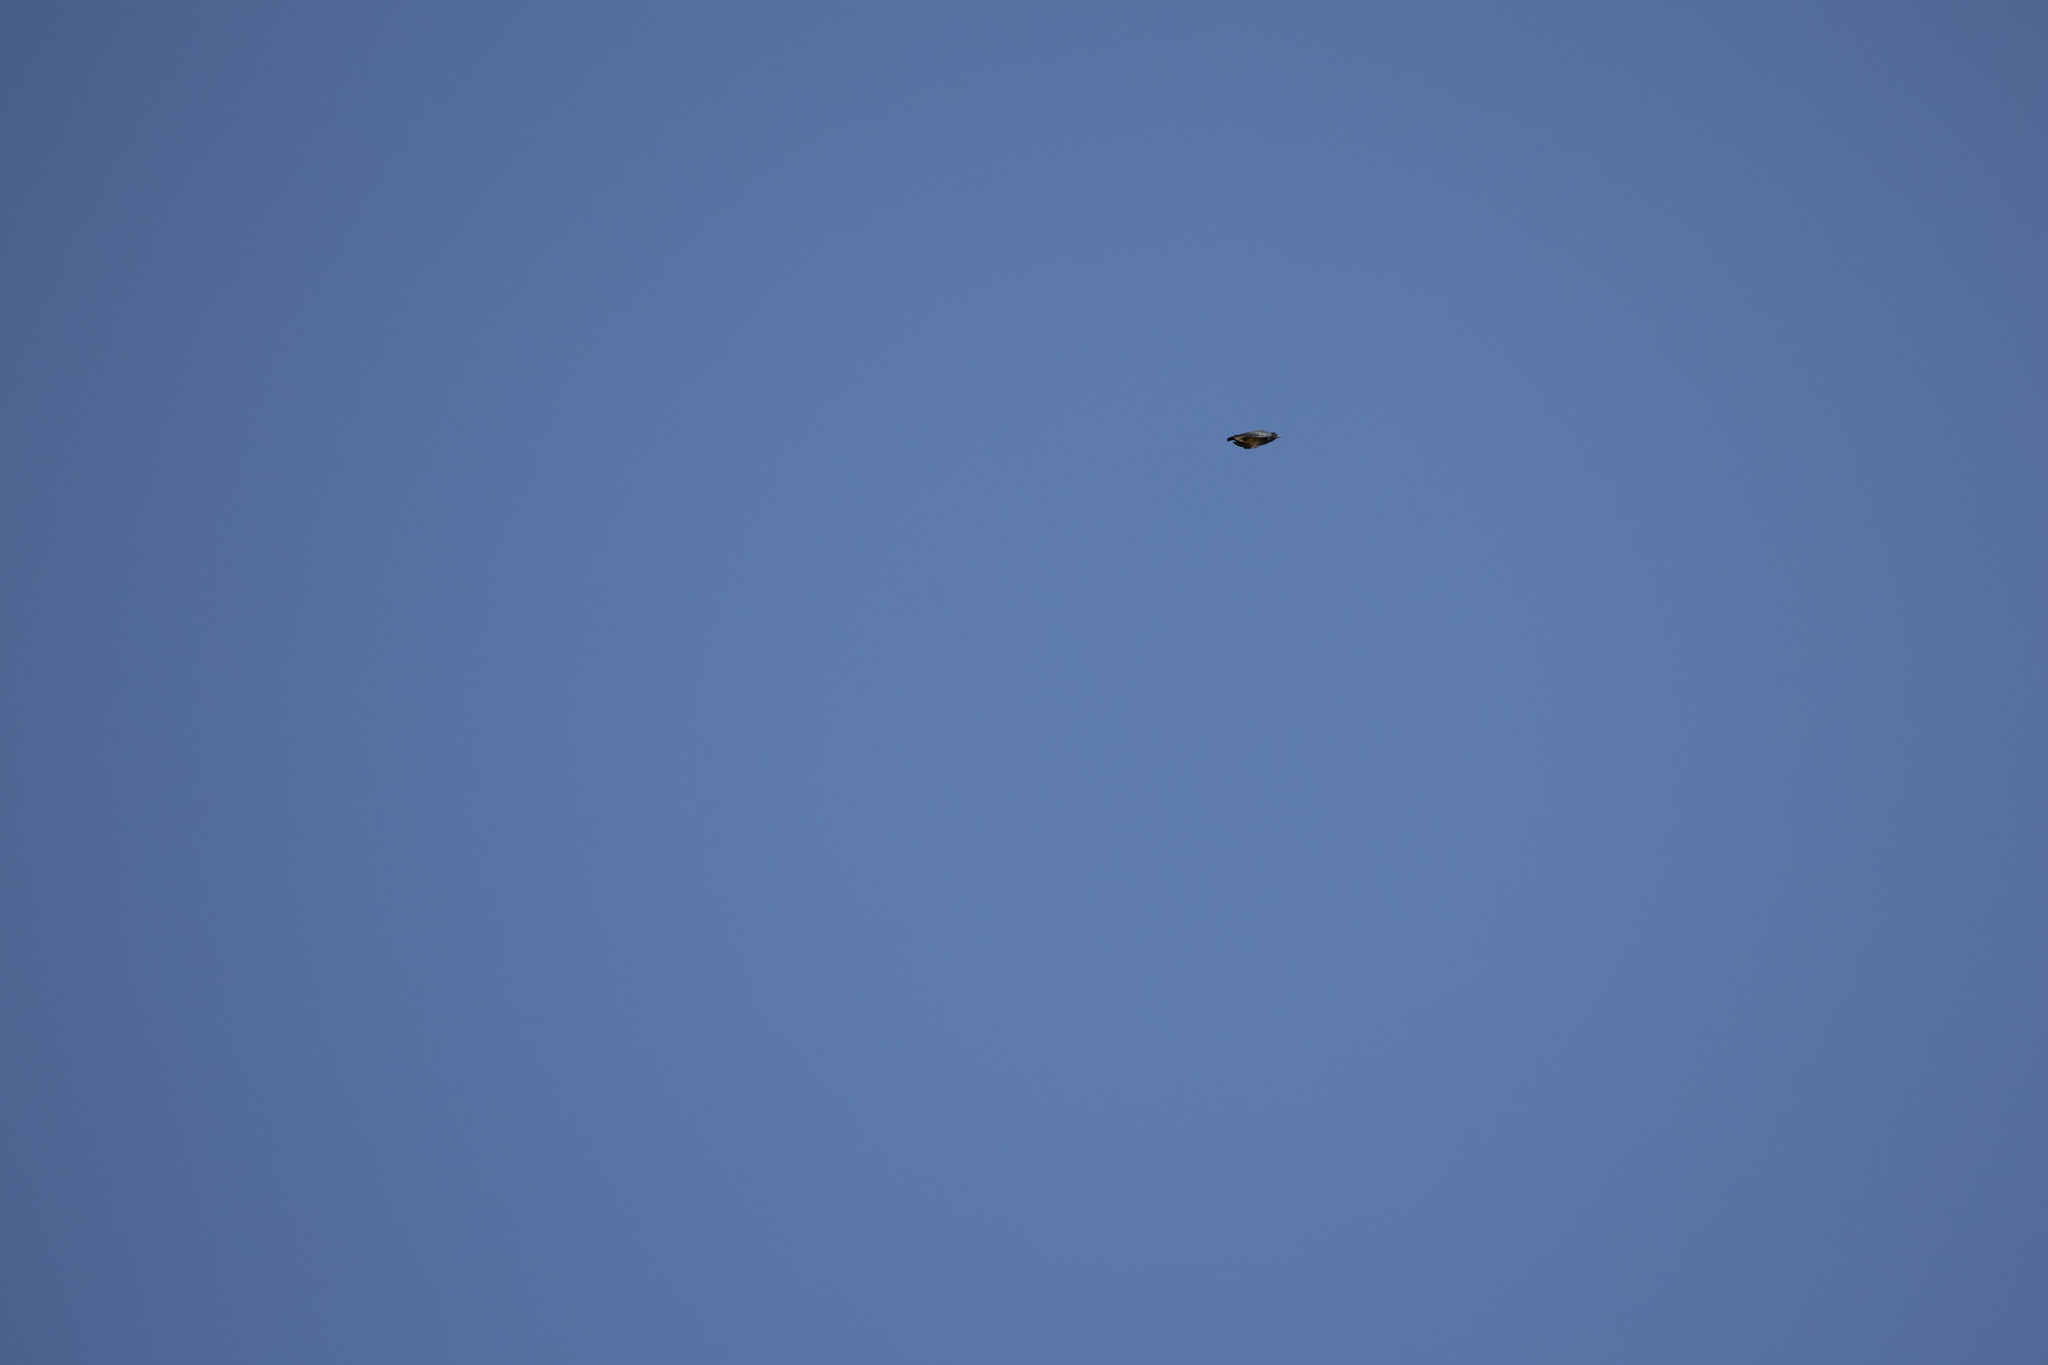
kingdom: Animalia
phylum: Chordata
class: Aves
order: Piciformes
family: Bucconidae
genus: Chelidoptera
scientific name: Chelidoptera tenebrosa
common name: Swallow-winged puffbird
